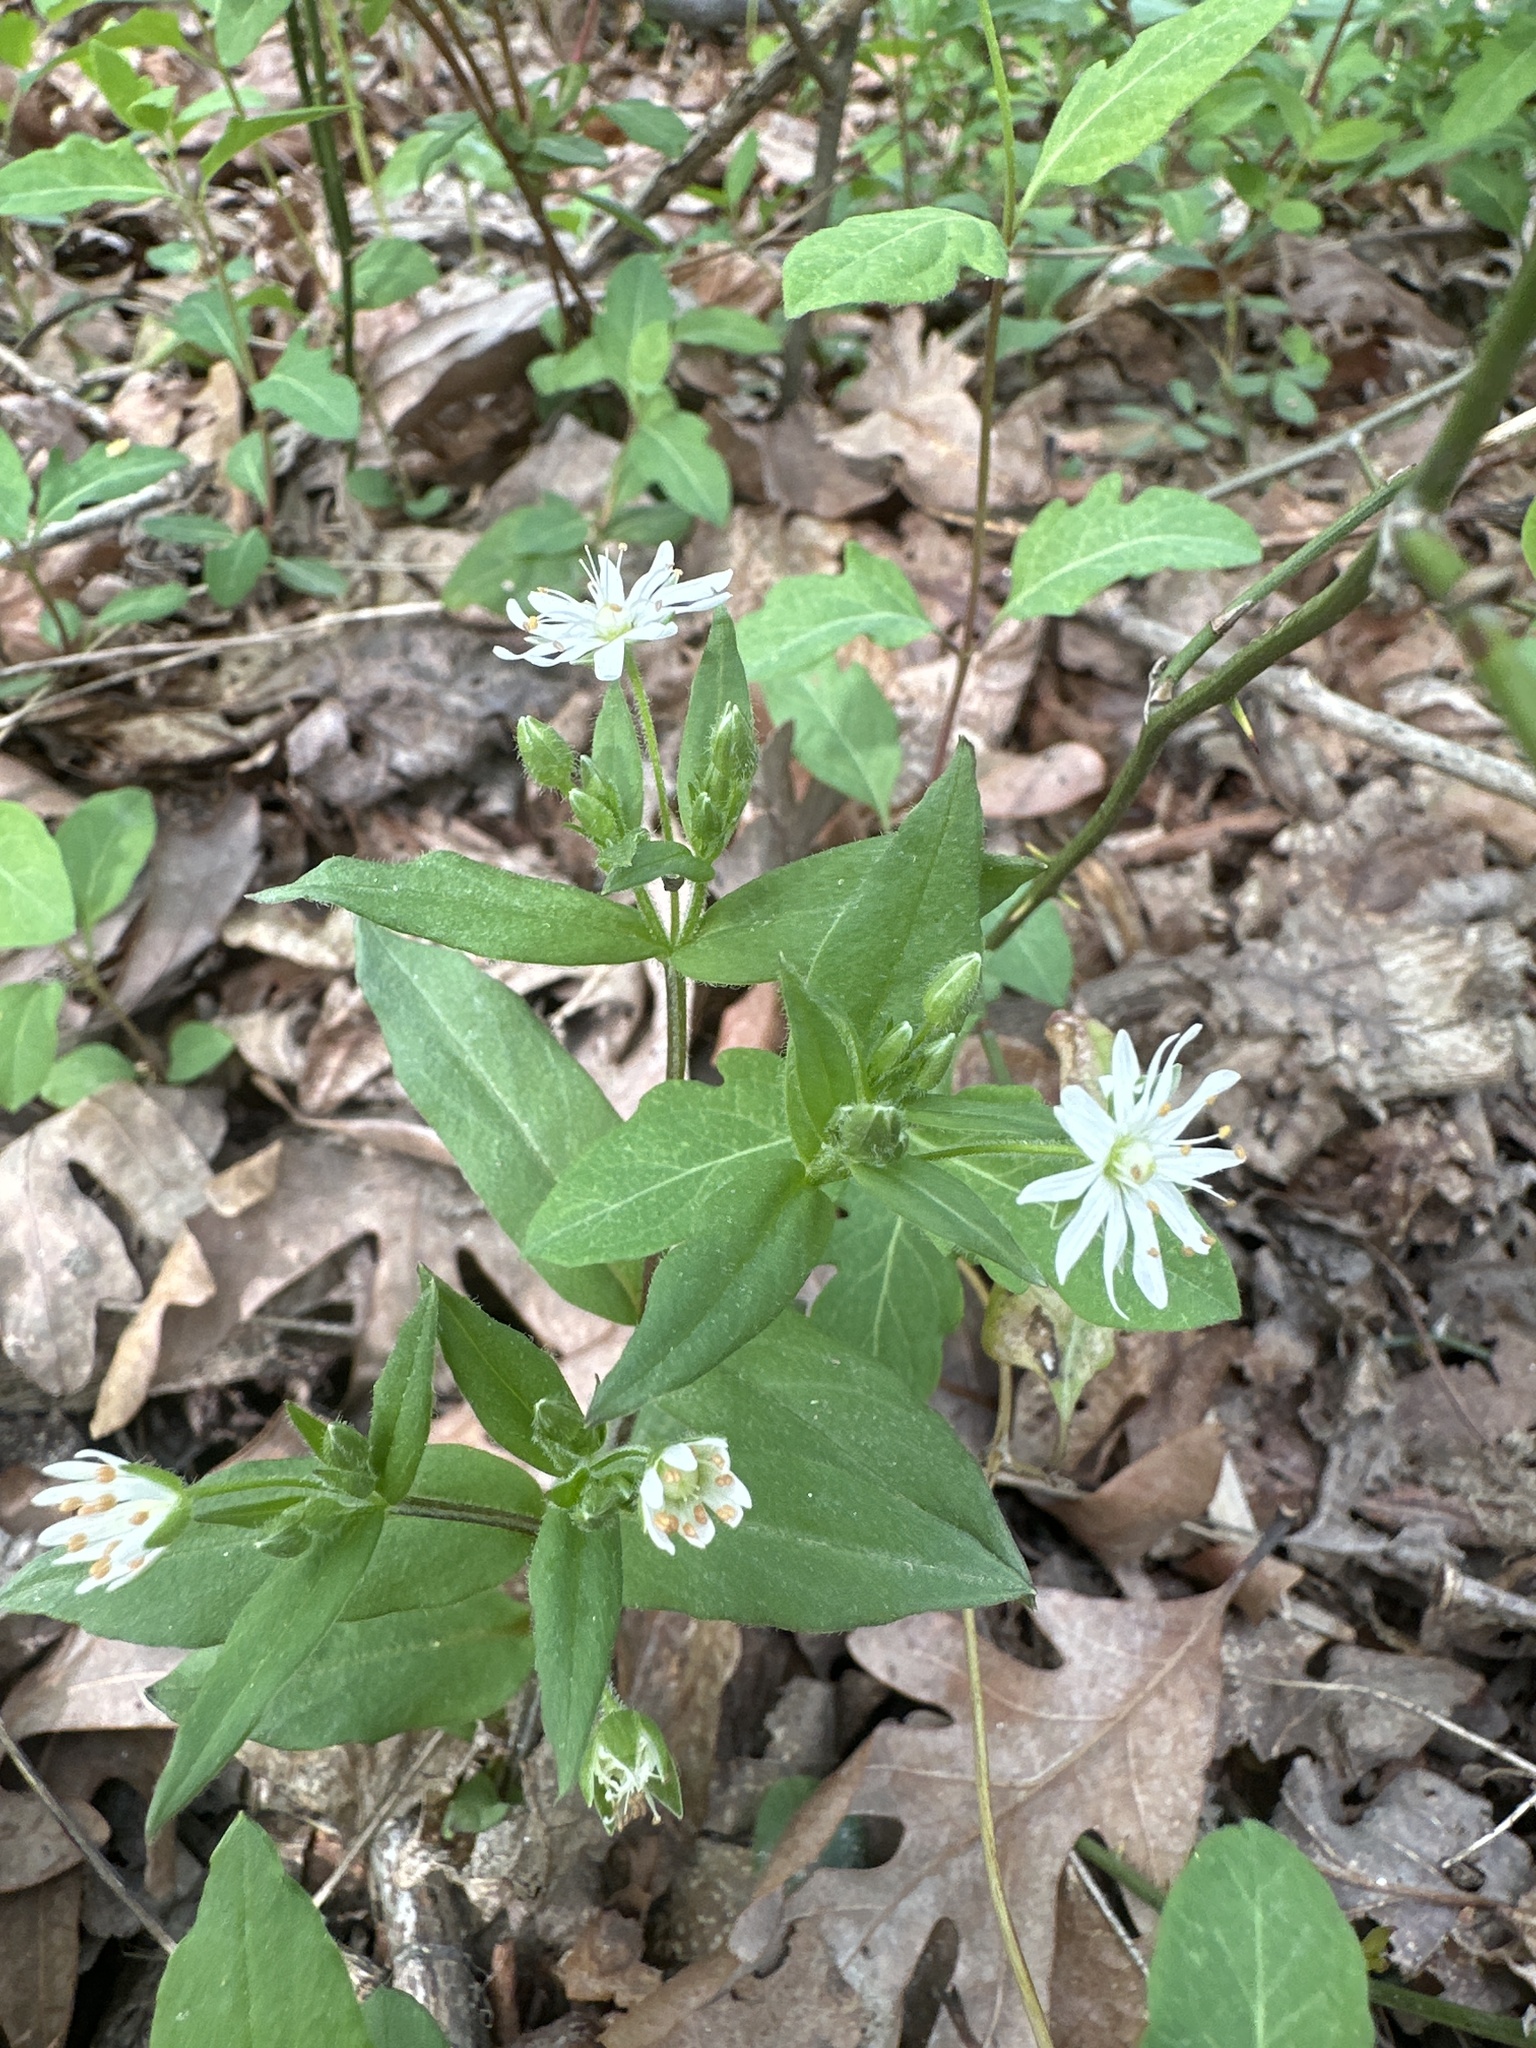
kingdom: Plantae
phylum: Tracheophyta
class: Magnoliopsida
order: Caryophyllales
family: Caryophyllaceae
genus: Stellaria
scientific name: Stellaria pubera
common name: Star chickweed
